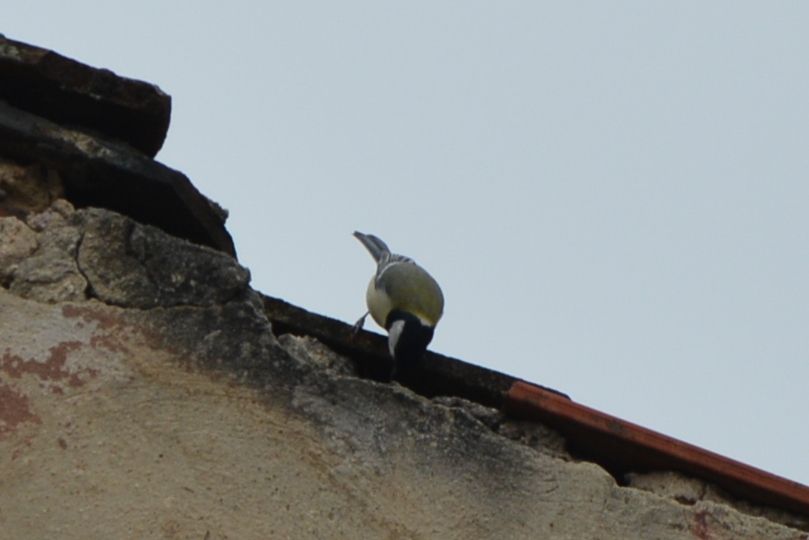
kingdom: Animalia
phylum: Chordata
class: Aves
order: Passeriformes
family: Paridae
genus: Parus
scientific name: Parus major
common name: Great tit
